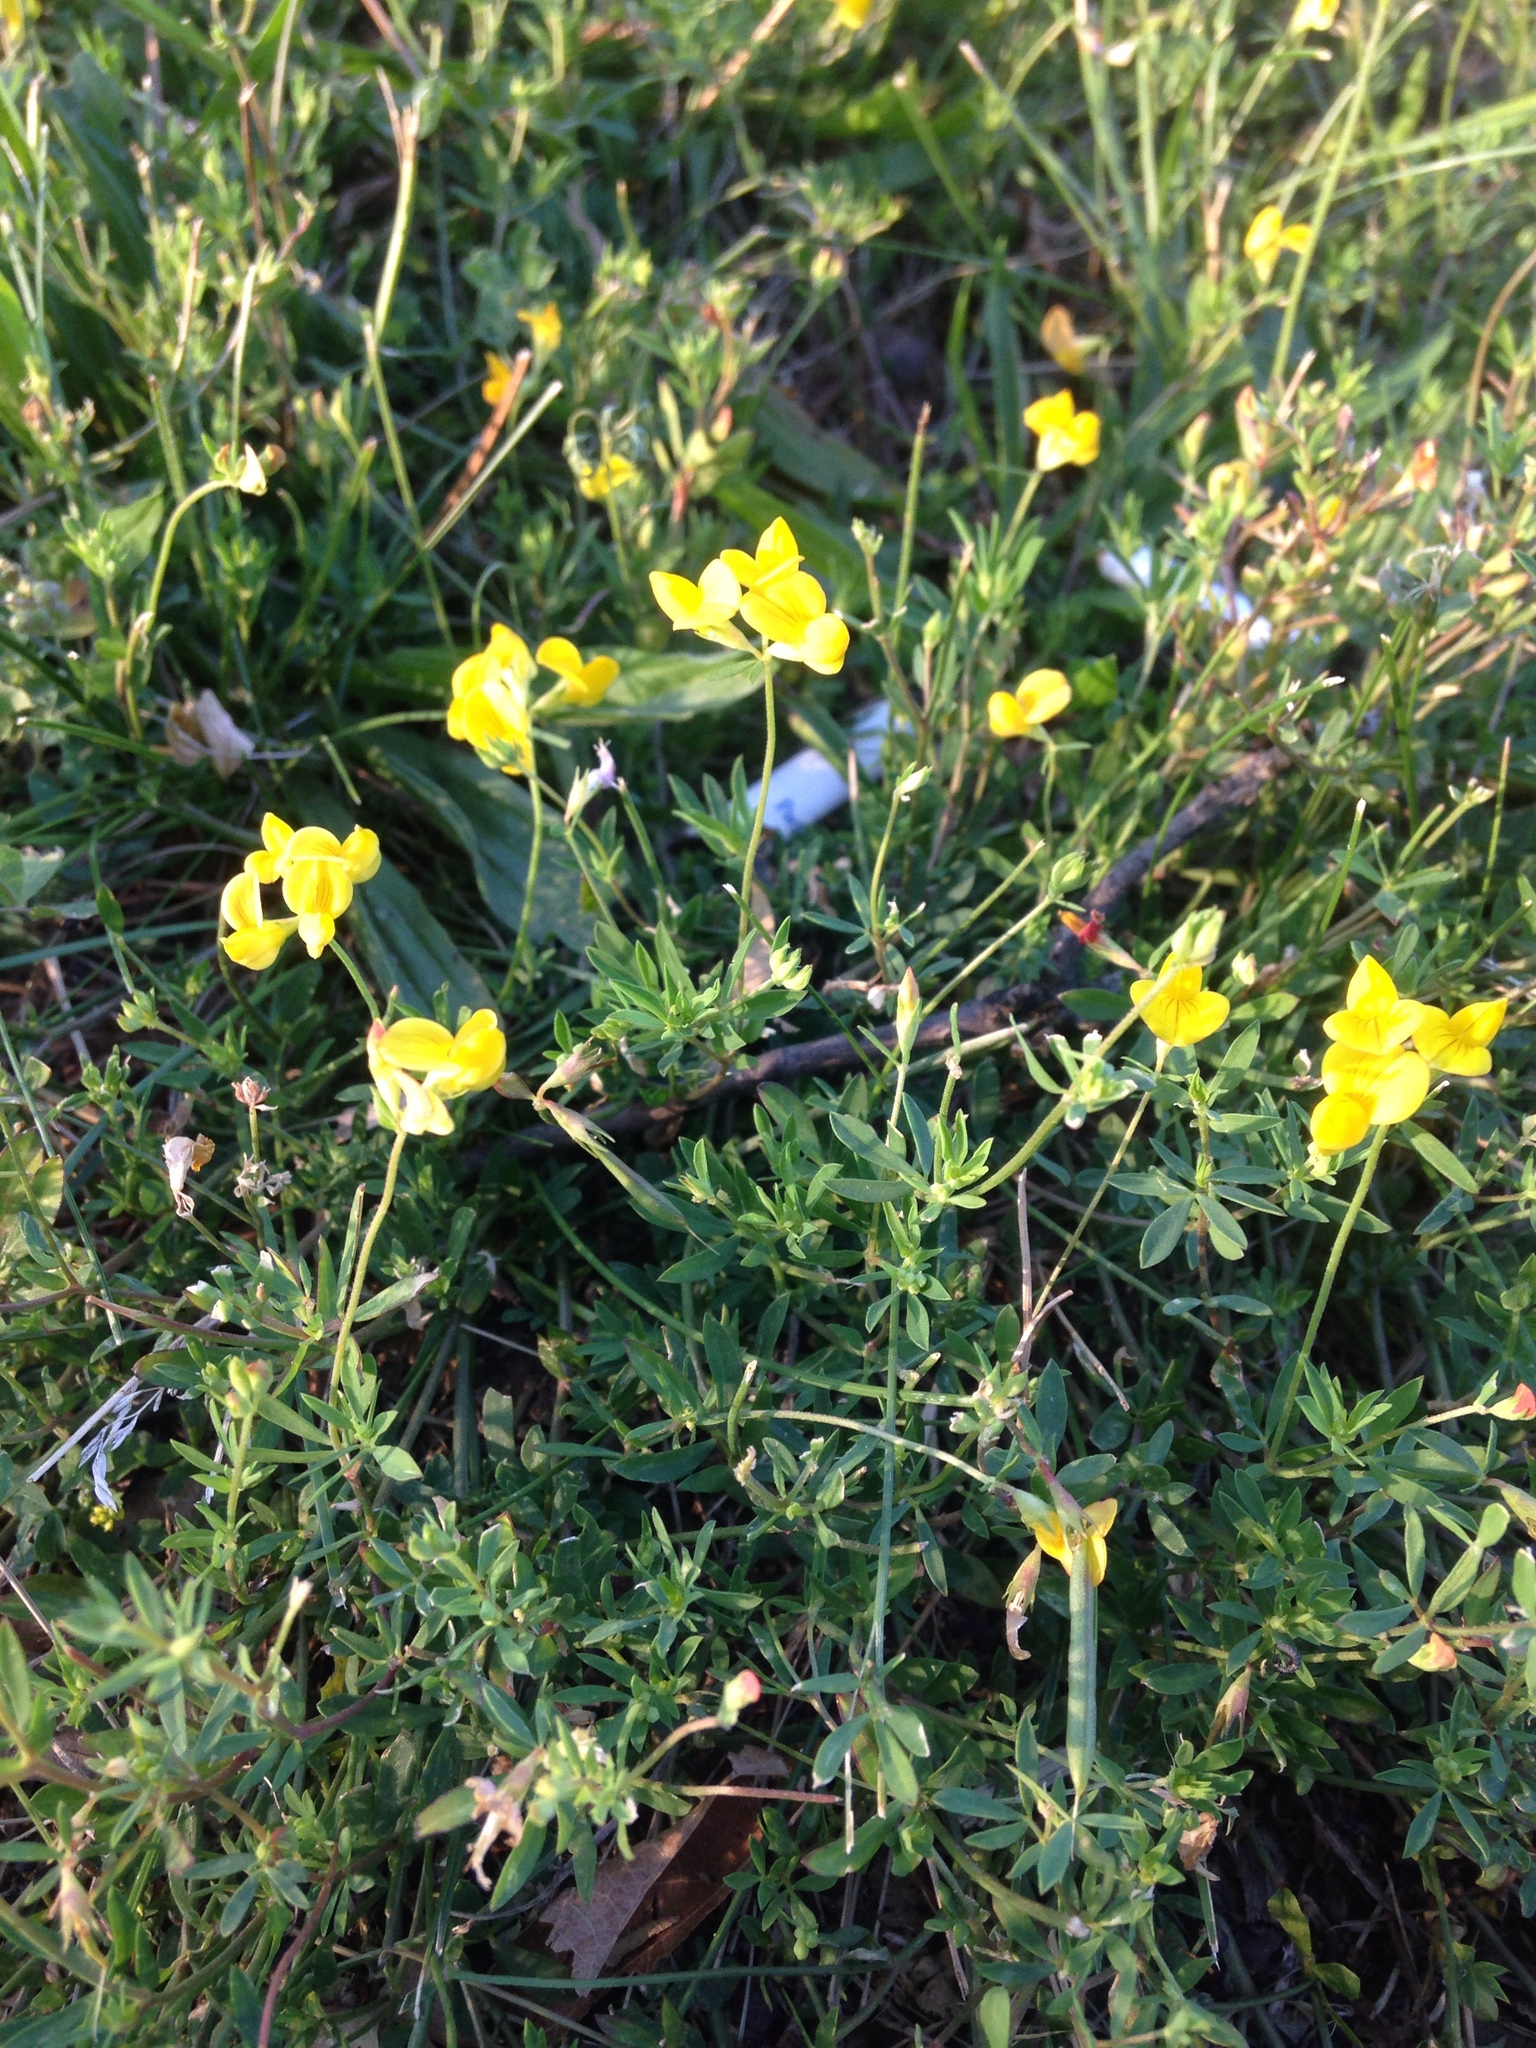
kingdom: Plantae
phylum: Tracheophyta
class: Magnoliopsida
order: Fabales
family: Fabaceae
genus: Lotus
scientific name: Lotus corniculatus
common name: Common bird's-foot-trefoil
